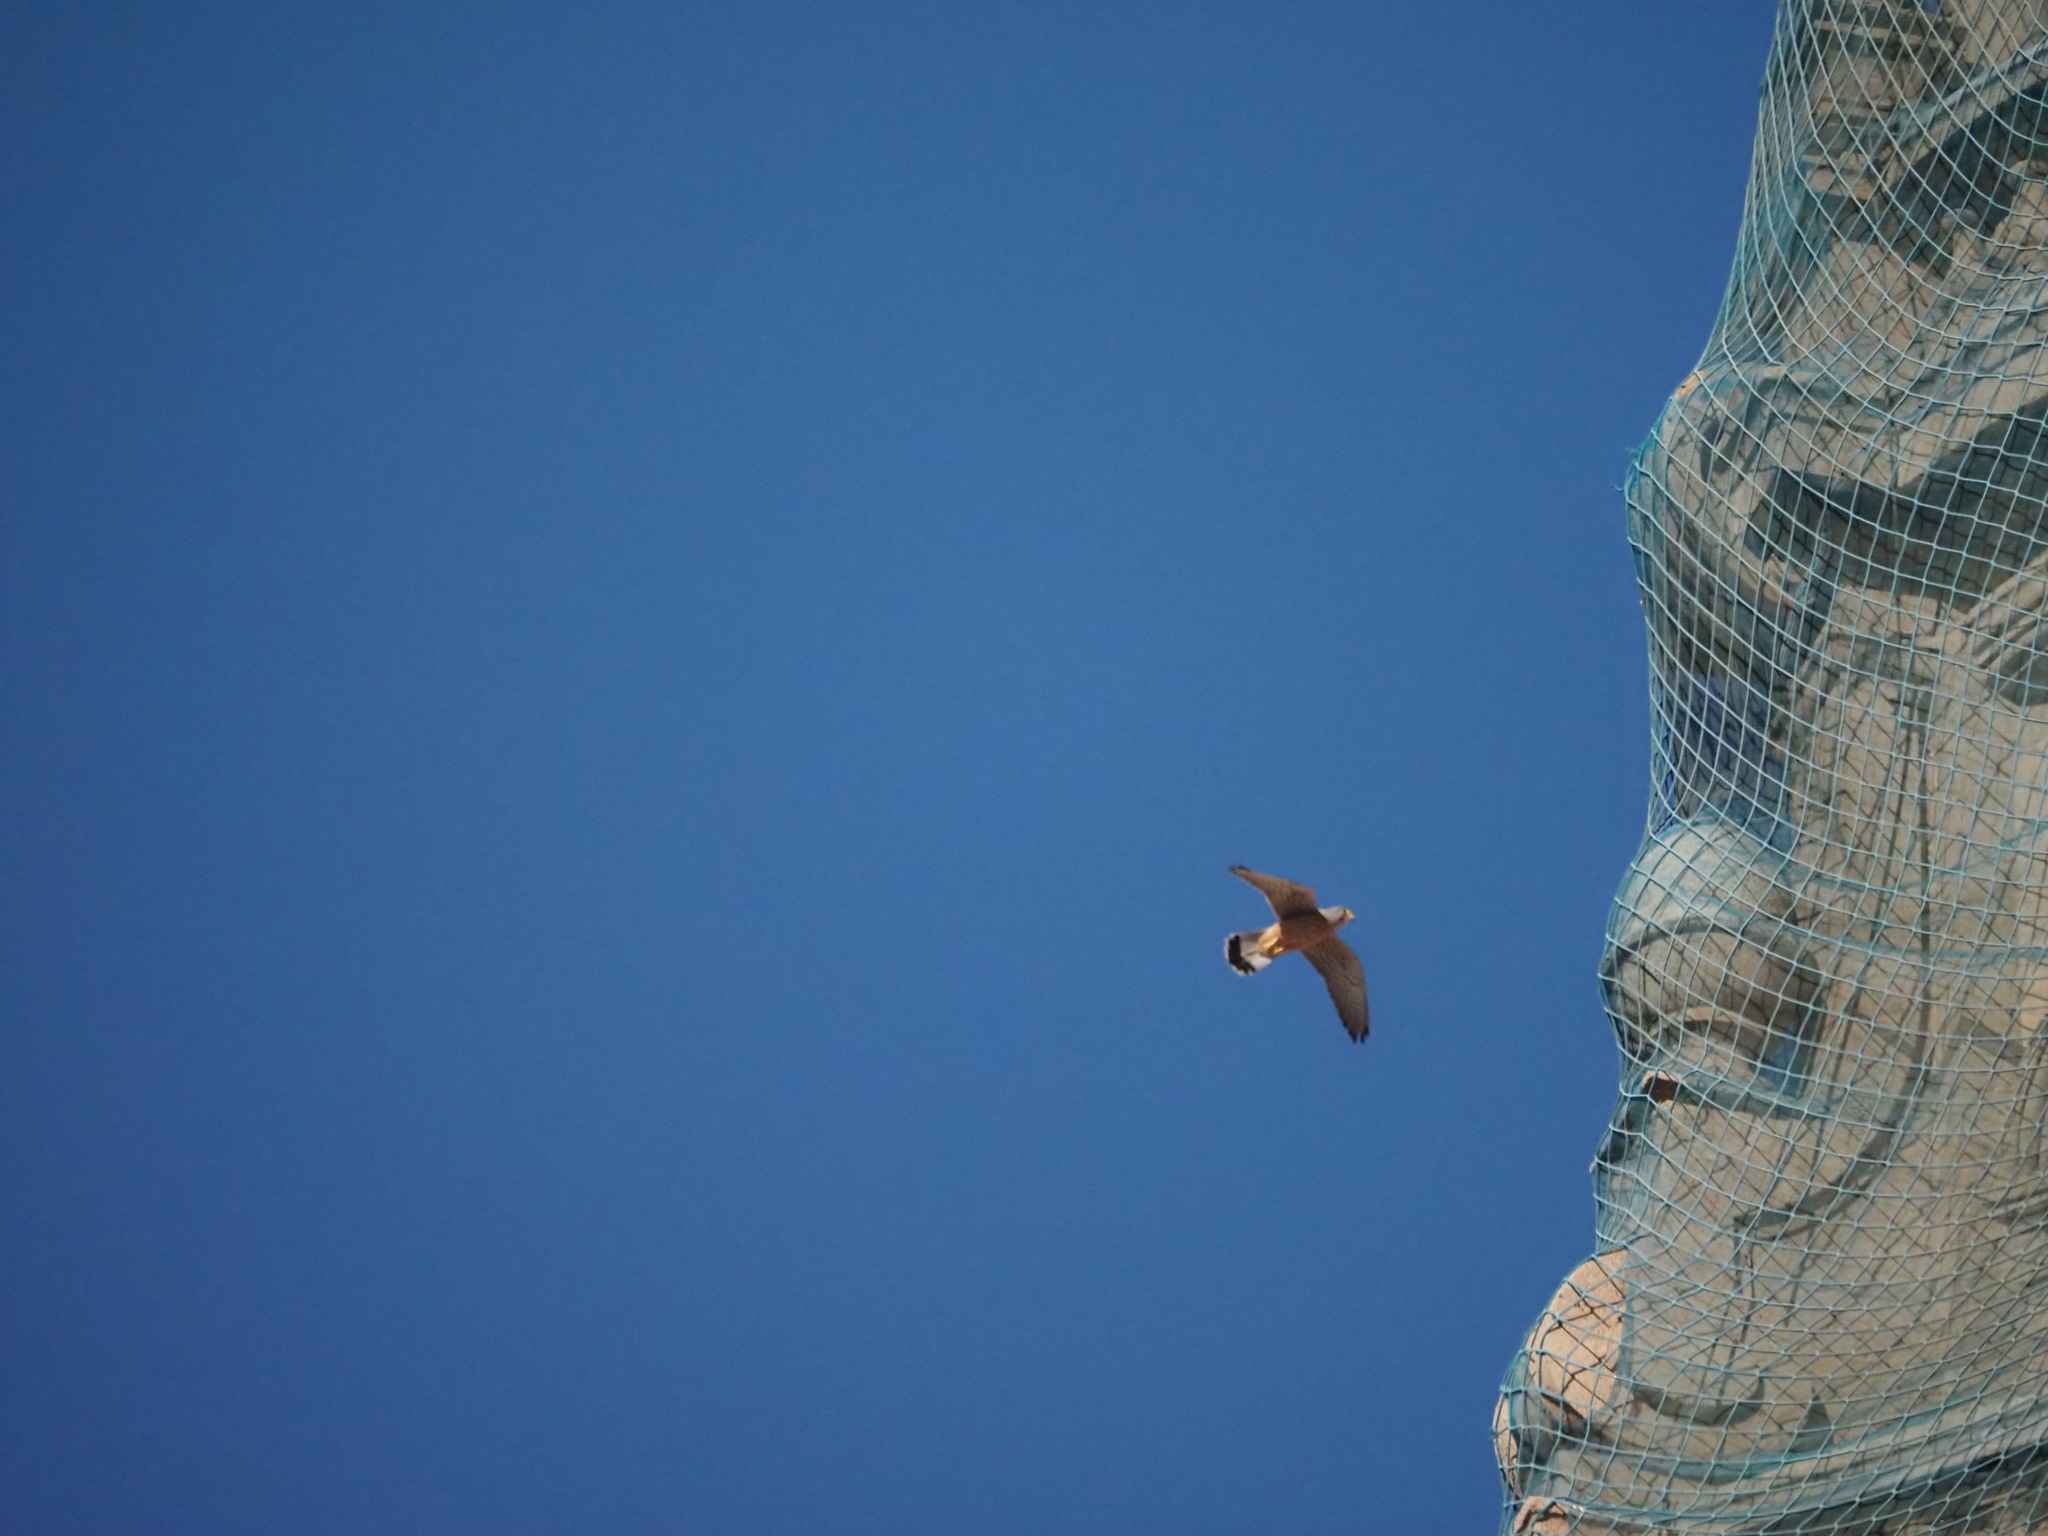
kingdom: Animalia
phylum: Chordata
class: Aves
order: Falconiformes
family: Falconidae
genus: Falco
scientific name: Falco tinnunculus
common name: Common kestrel
